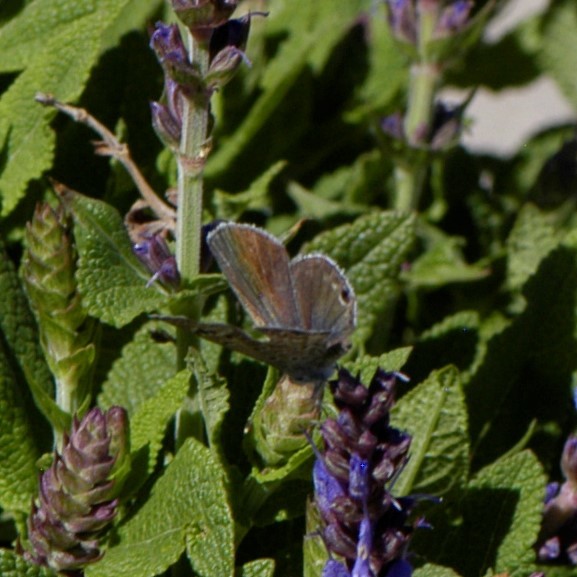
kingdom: Animalia
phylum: Arthropoda
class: Insecta
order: Lepidoptera
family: Lycaenidae
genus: Echinargus
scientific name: Echinargus isola
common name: Reakirt's blue
